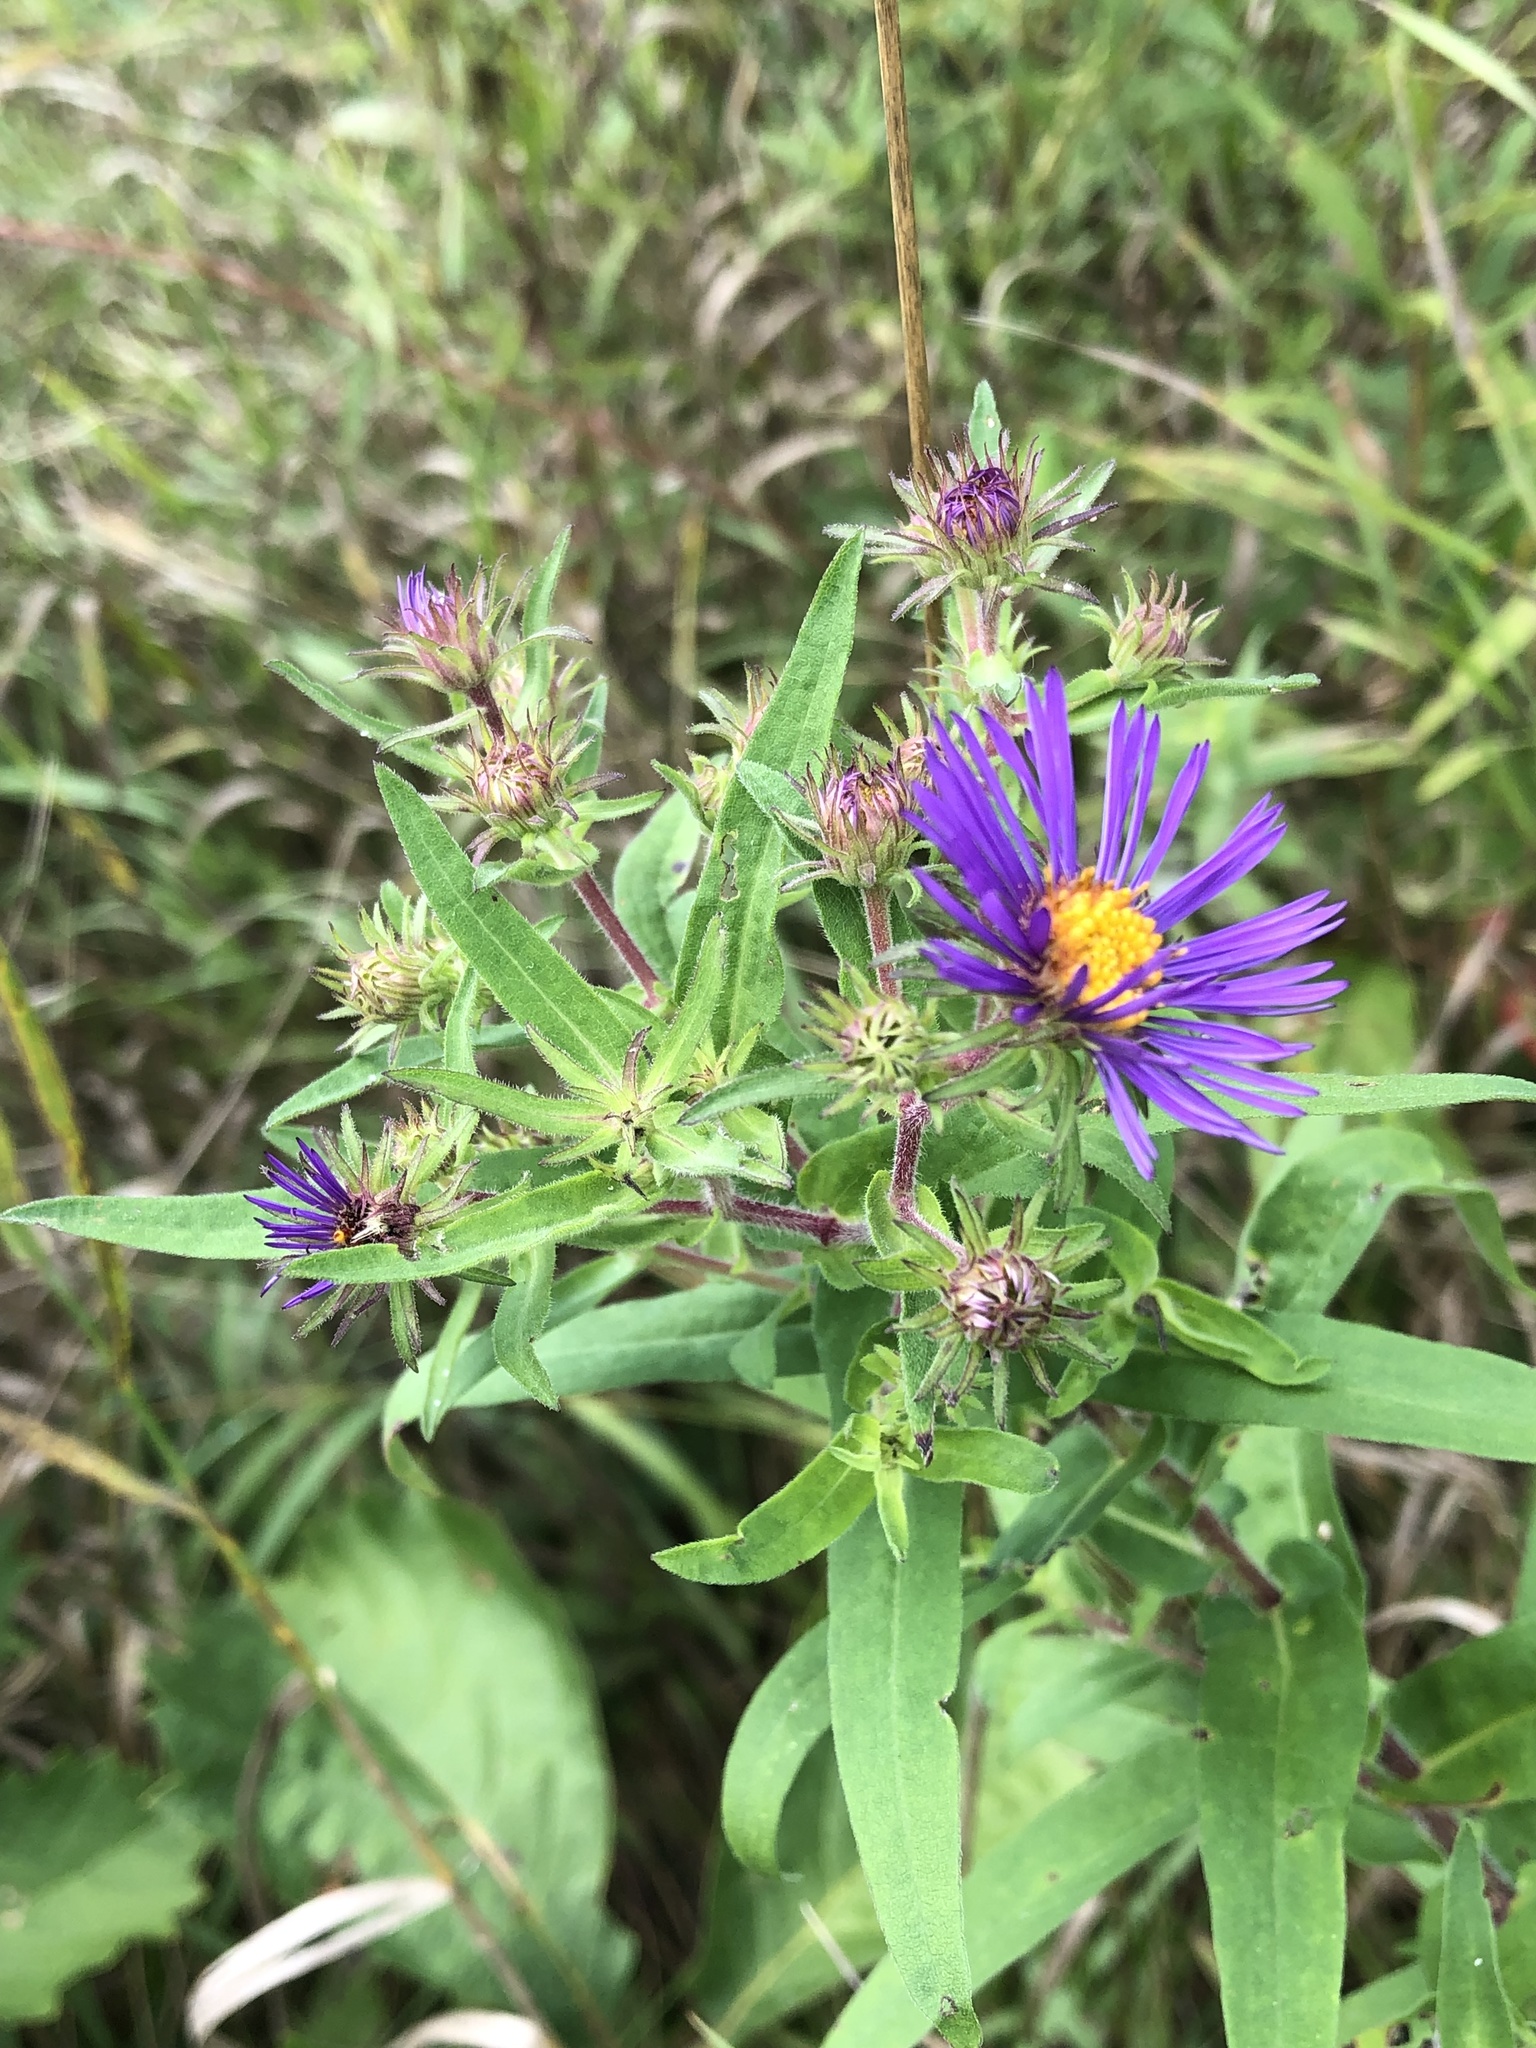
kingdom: Plantae
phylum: Tracheophyta
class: Magnoliopsida
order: Asterales
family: Asteraceae
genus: Symphyotrichum
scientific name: Symphyotrichum novae-angliae
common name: Michaelmas daisy
